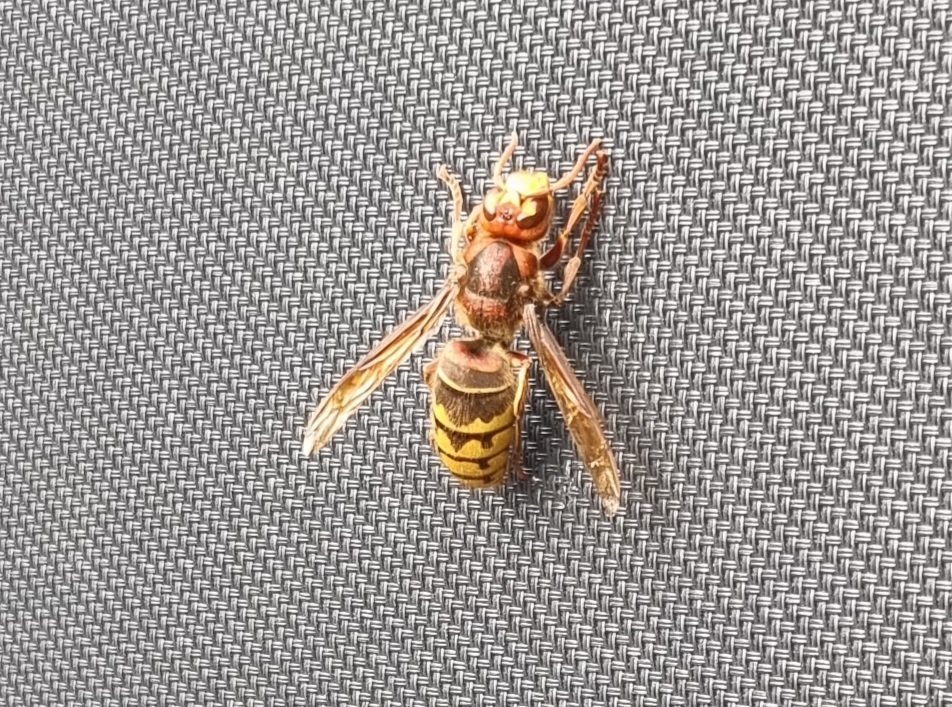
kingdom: Animalia
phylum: Arthropoda
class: Insecta
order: Hymenoptera
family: Vespidae
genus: Vespa
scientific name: Vespa crabro
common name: Hornet
